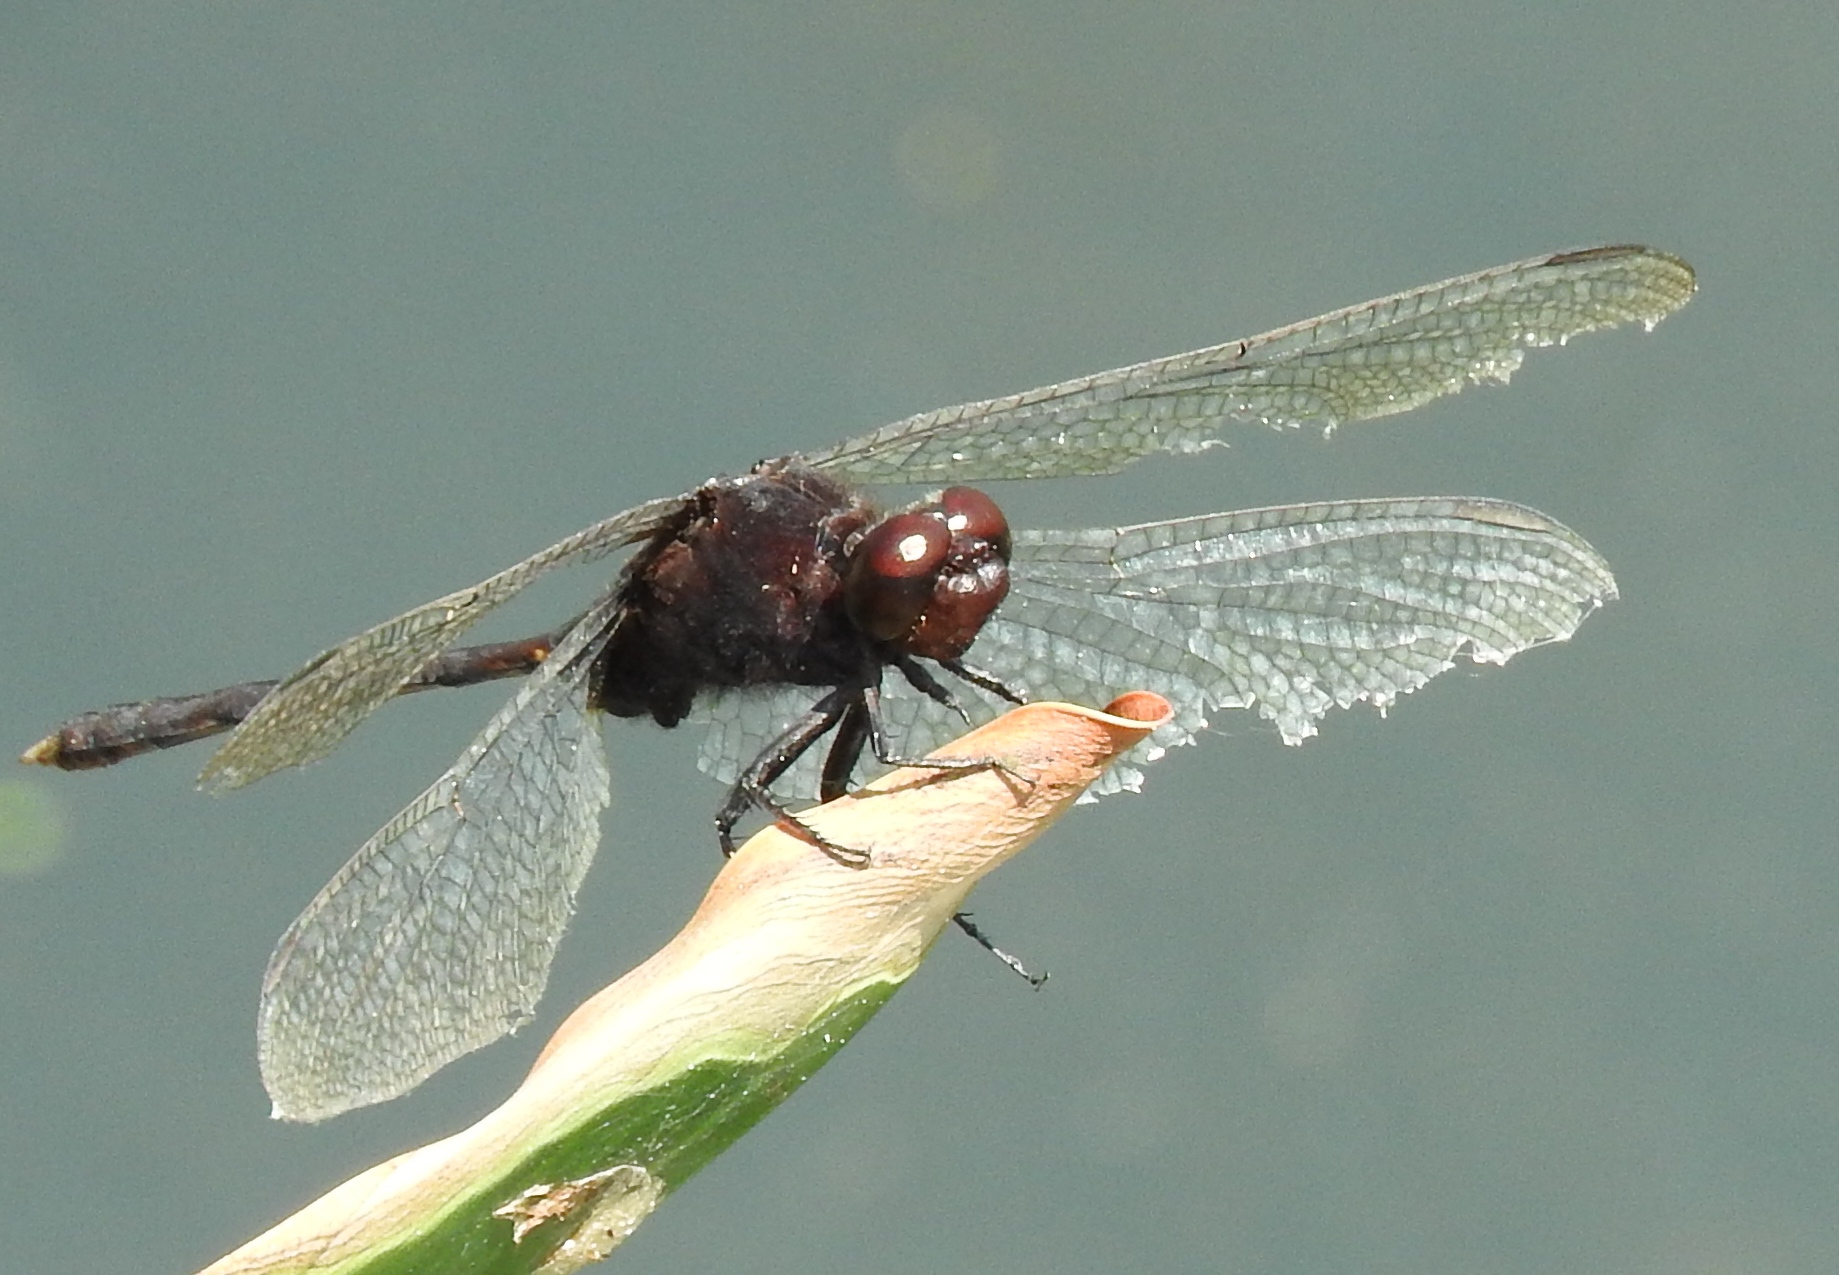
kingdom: Animalia
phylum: Arthropoda
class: Insecta
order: Odonata
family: Libellulidae
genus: Erythemis
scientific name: Erythemis plebeja
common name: Pin-tailed pondhawk
